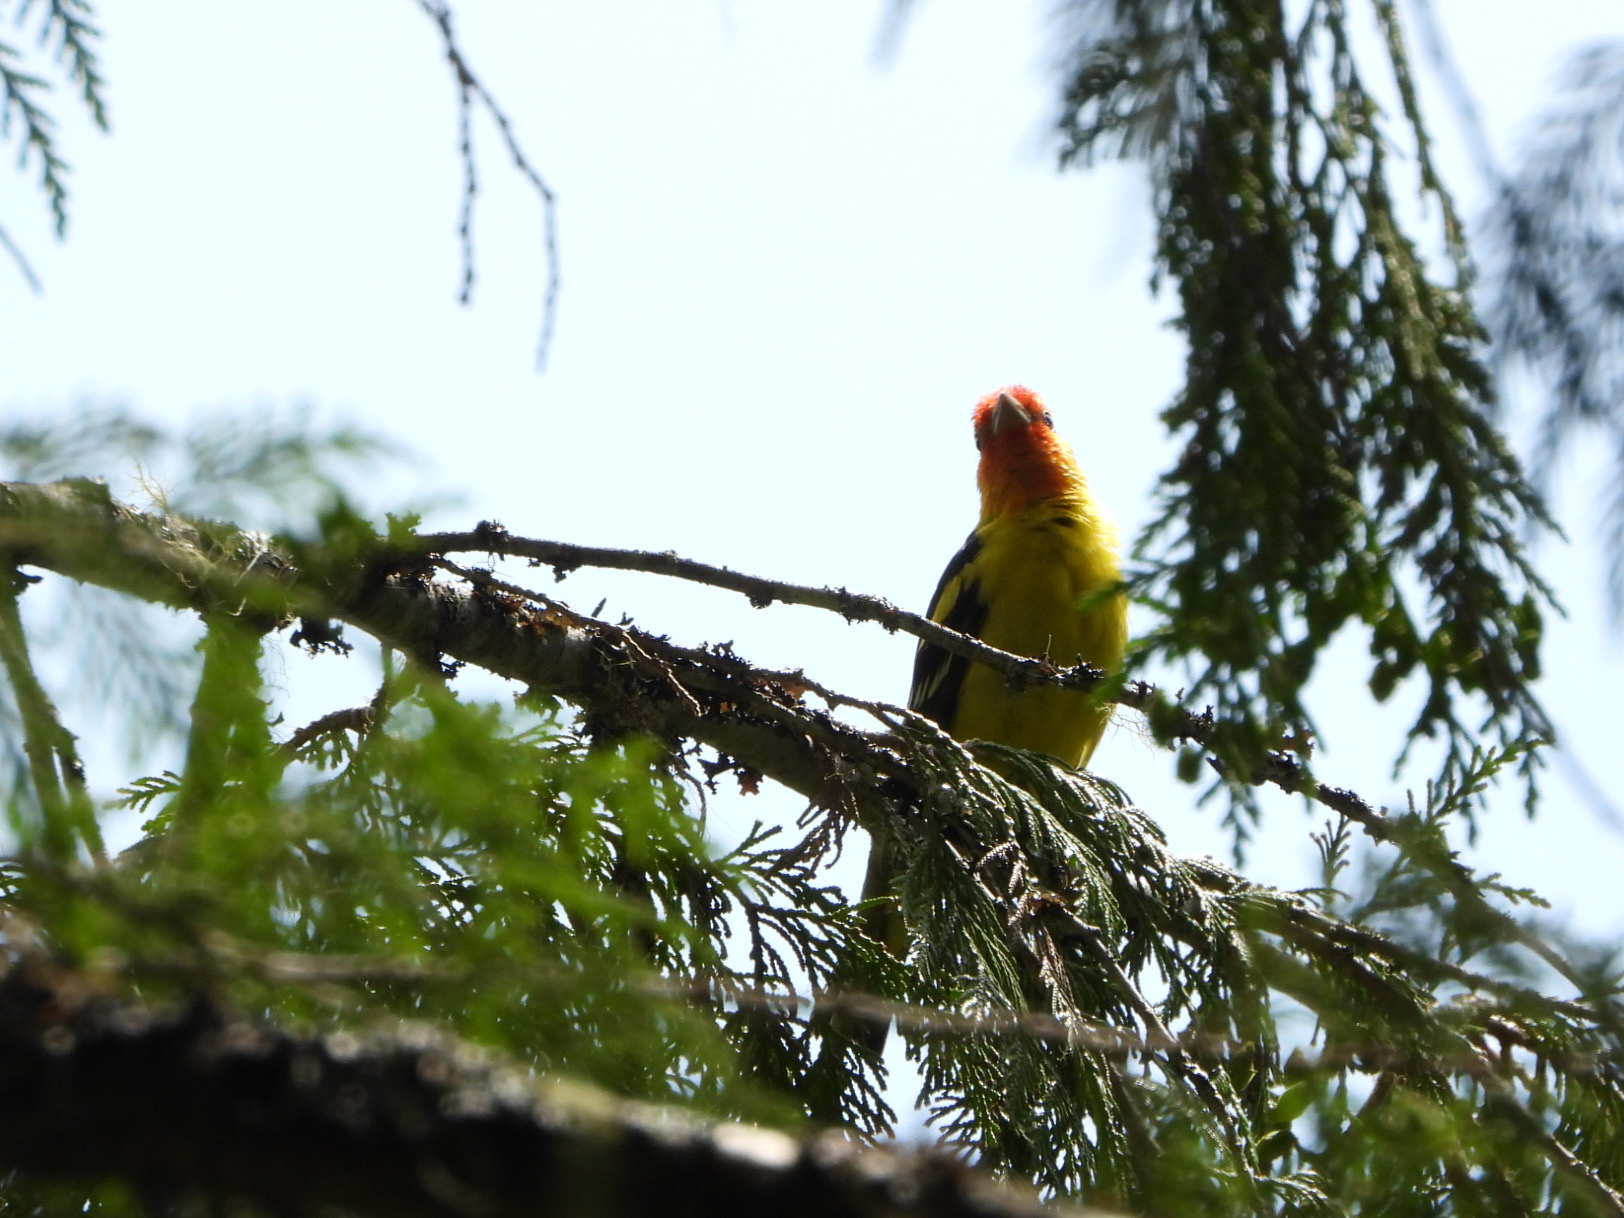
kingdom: Animalia
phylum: Chordata
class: Aves
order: Passeriformes
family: Cardinalidae
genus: Piranga
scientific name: Piranga ludoviciana
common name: Western tanager
